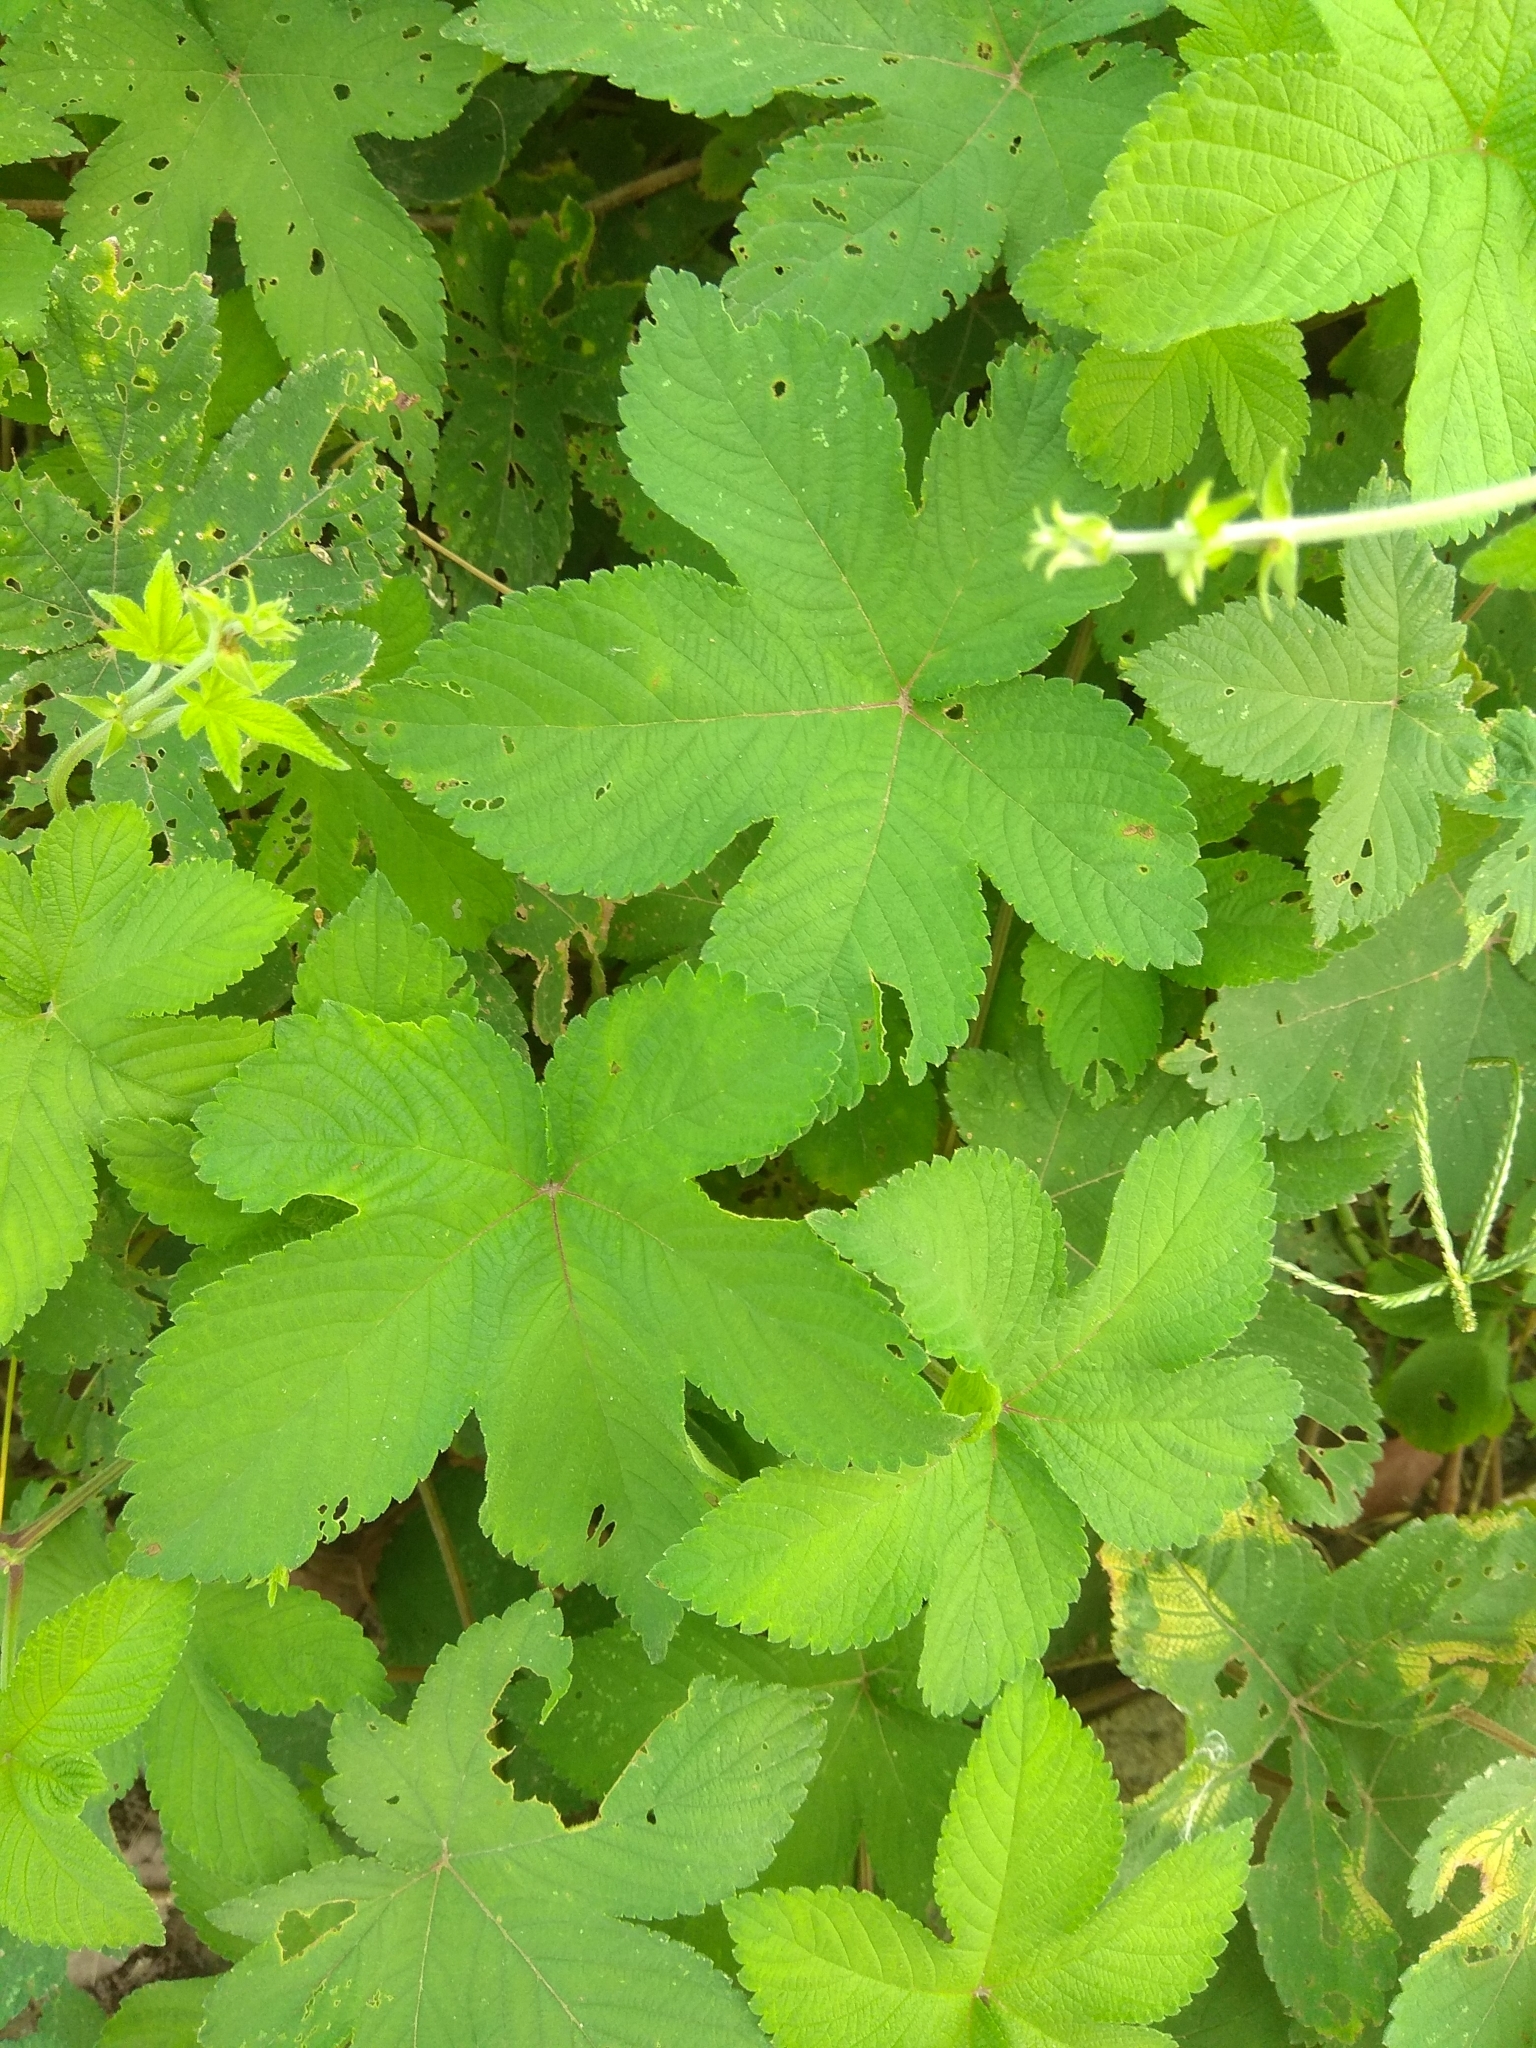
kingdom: Plantae
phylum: Tracheophyta
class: Magnoliopsida
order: Rosales
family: Cannabaceae
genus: Humulus
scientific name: Humulus scandens
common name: Japanese hop
